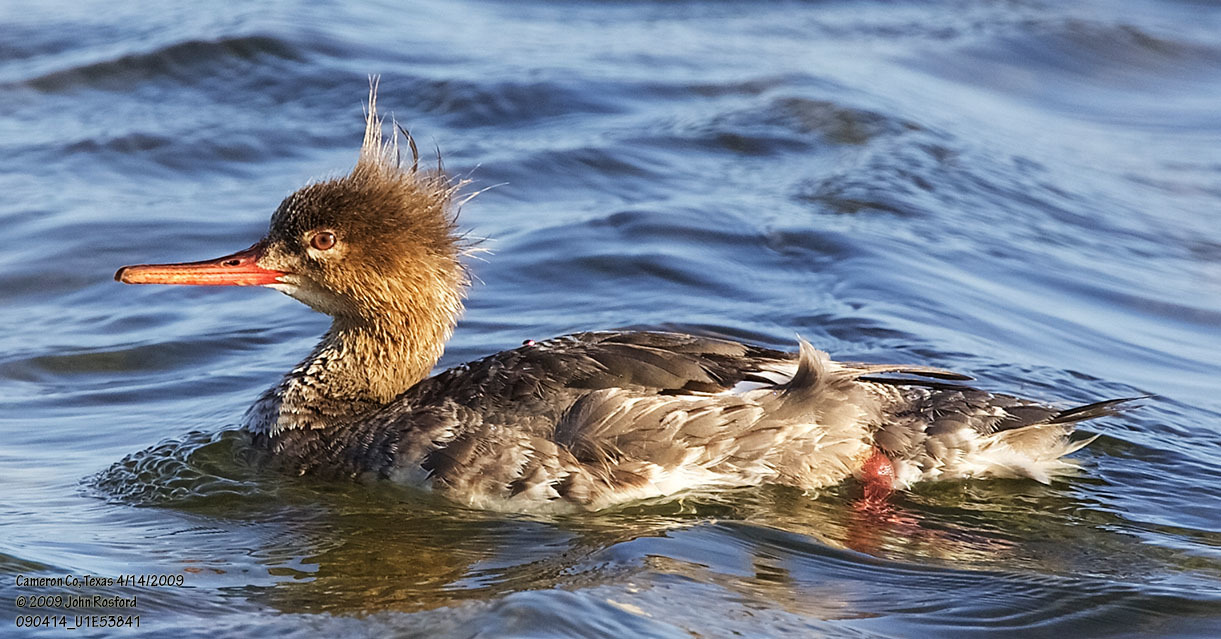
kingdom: Animalia
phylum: Chordata
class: Aves
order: Anseriformes
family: Anatidae
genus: Mergus
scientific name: Mergus serrator
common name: Red-breasted merganser
